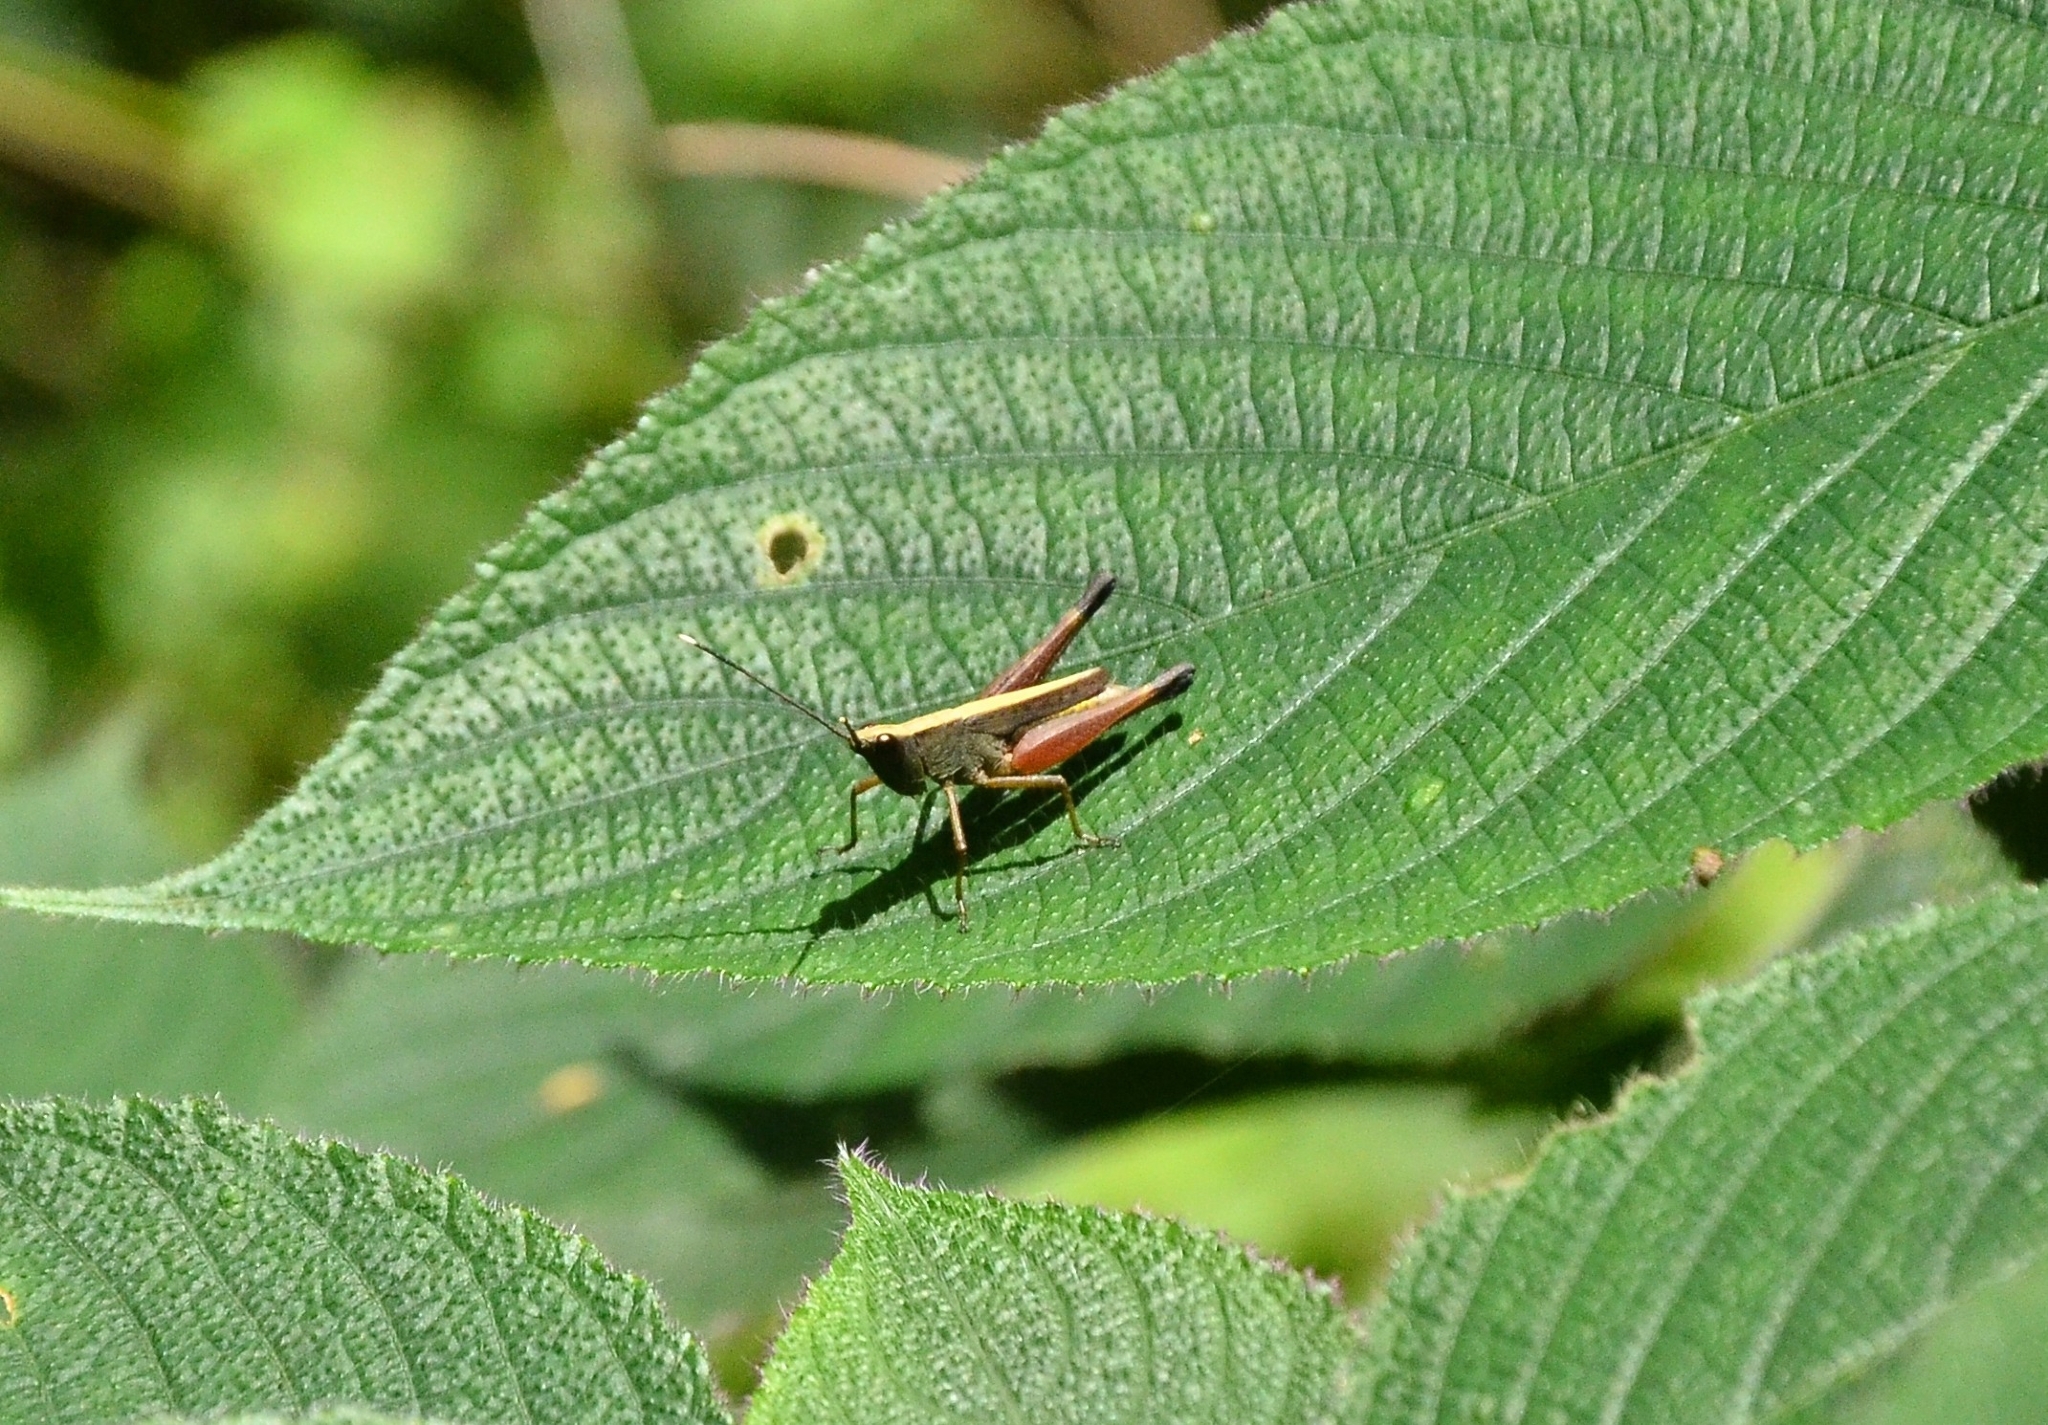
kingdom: Animalia
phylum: Arthropoda
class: Insecta
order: Orthoptera
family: Acrididae
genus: Phlaeoba
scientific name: Phlaeoba antennata
